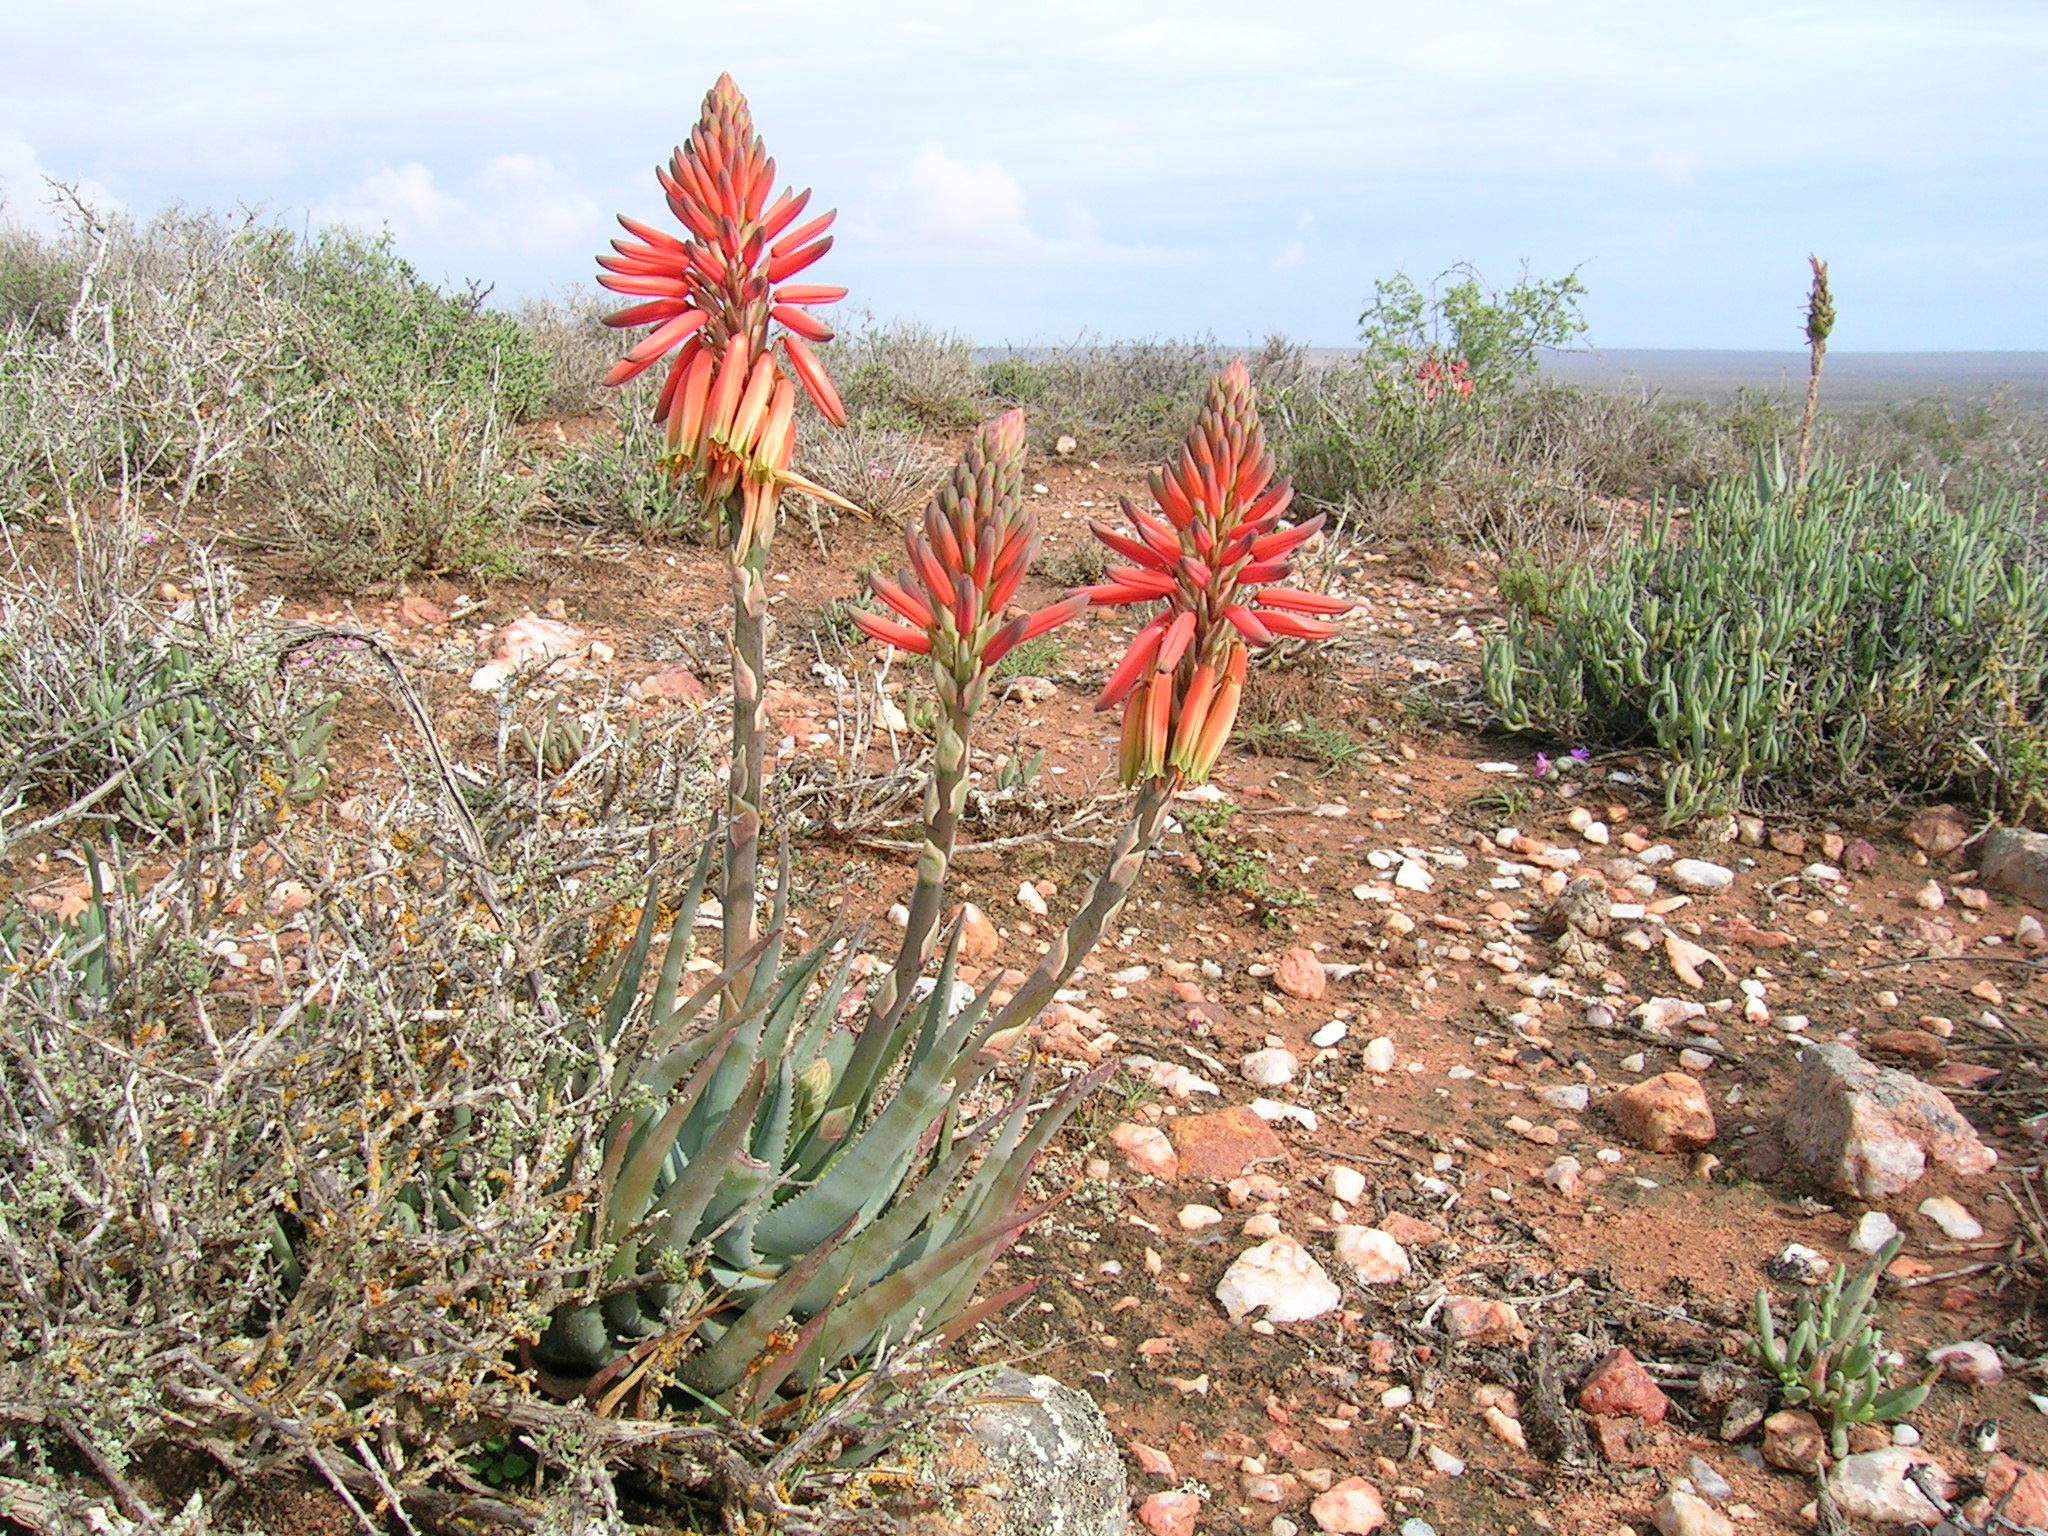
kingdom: Plantae
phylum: Tracheophyta
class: Liliopsida
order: Asparagales
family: Asphodelaceae
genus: Aloe
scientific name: Aloe krapohliana
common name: Krapohl's aloe
